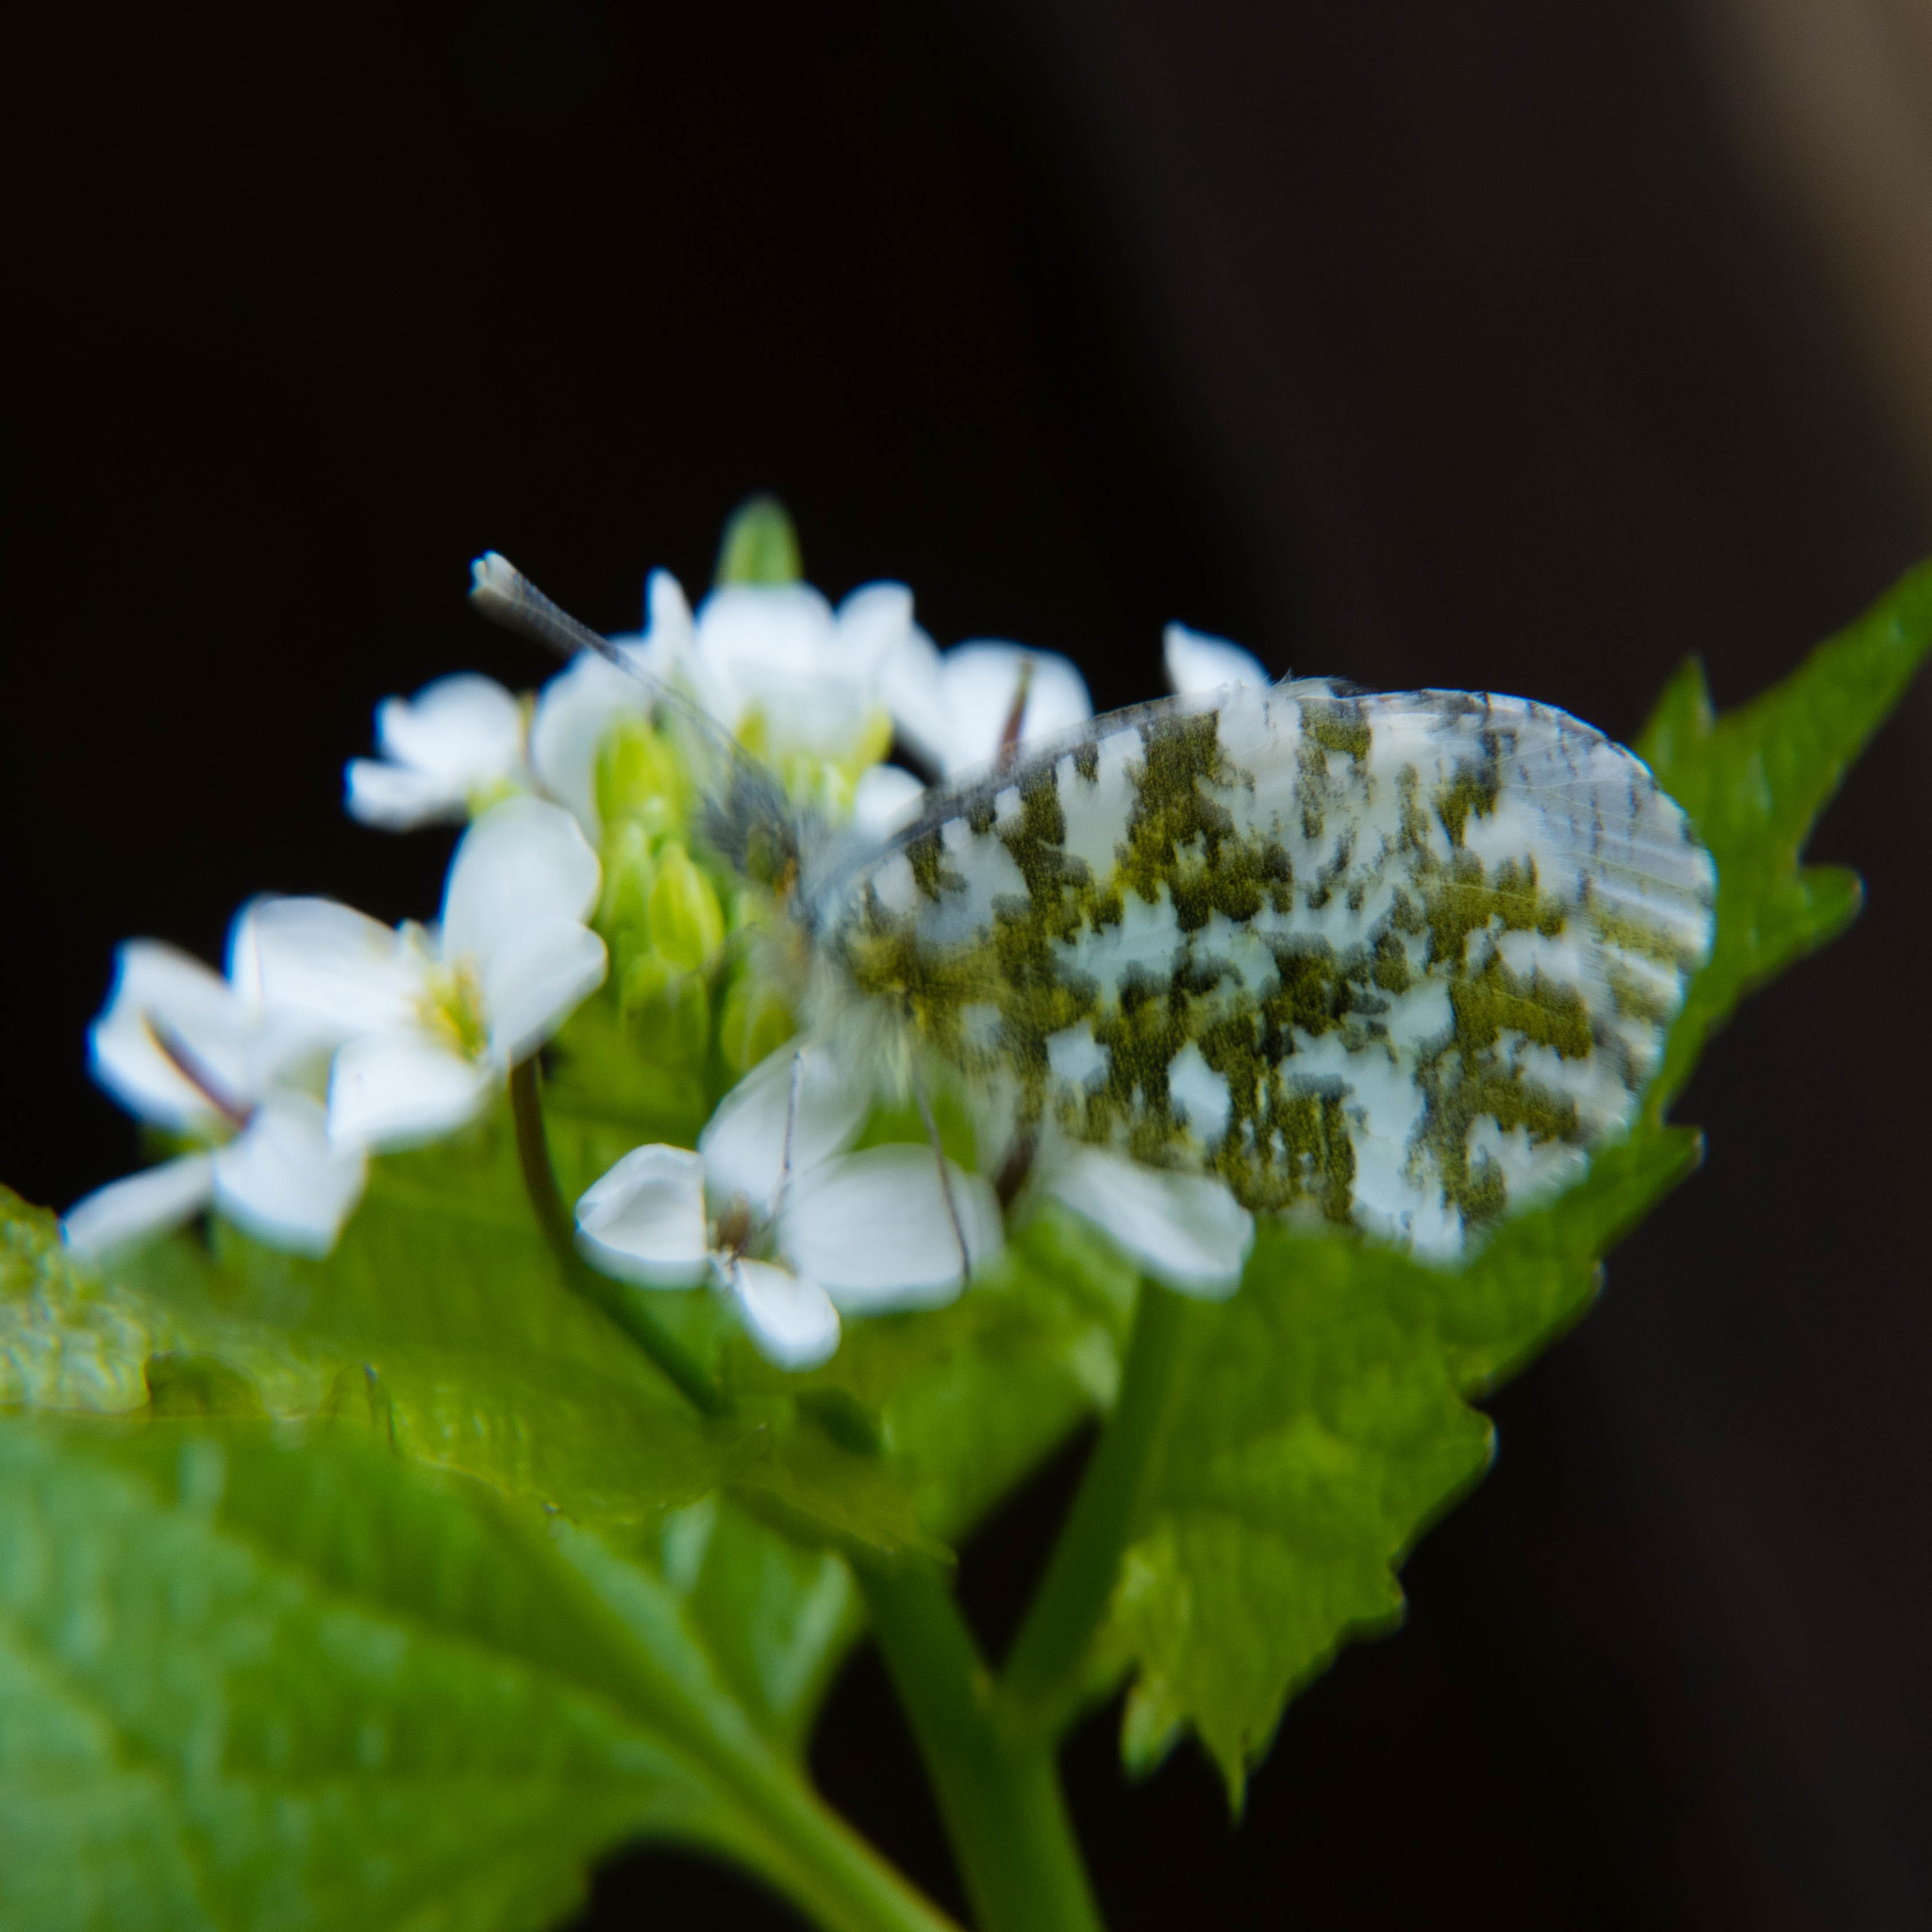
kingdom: Animalia
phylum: Arthropoda
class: Insecta
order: Lepidoptera
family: Pieridae
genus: Anthocharis
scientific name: Anthocharis cardamines
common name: Orange-tip
